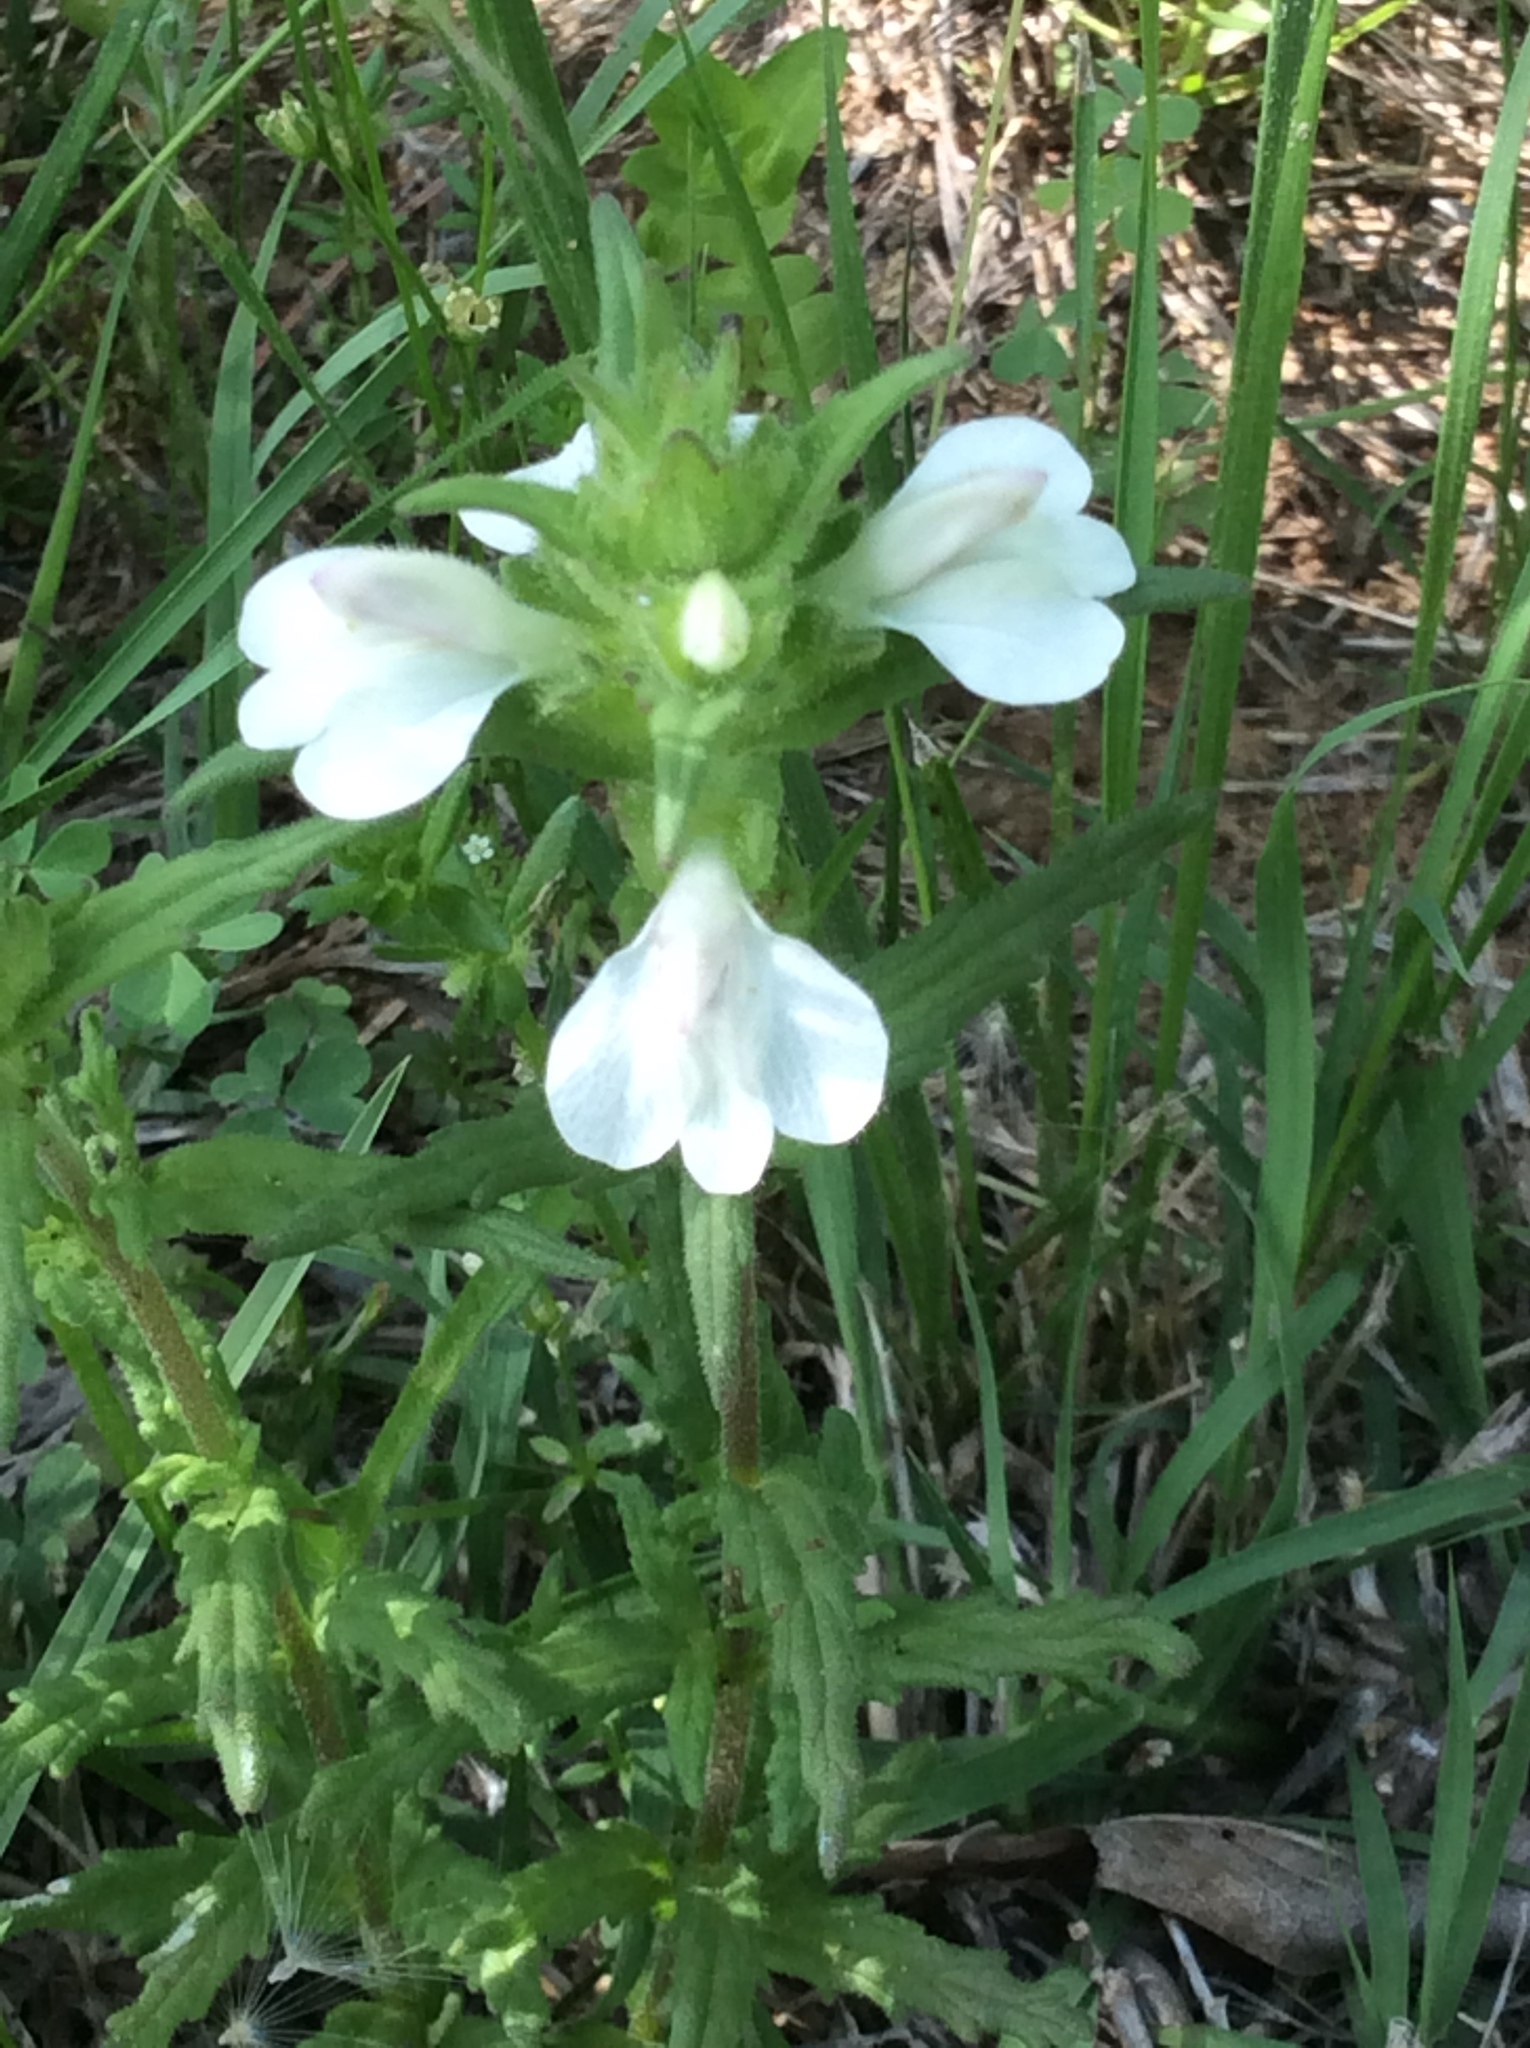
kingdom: Plantae
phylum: Tracheophyta
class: Magnoliopsida
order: Lamiales
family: Orobanchaceae
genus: Bellardia
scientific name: Bellardia trixago
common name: Mediterranean lineseed
